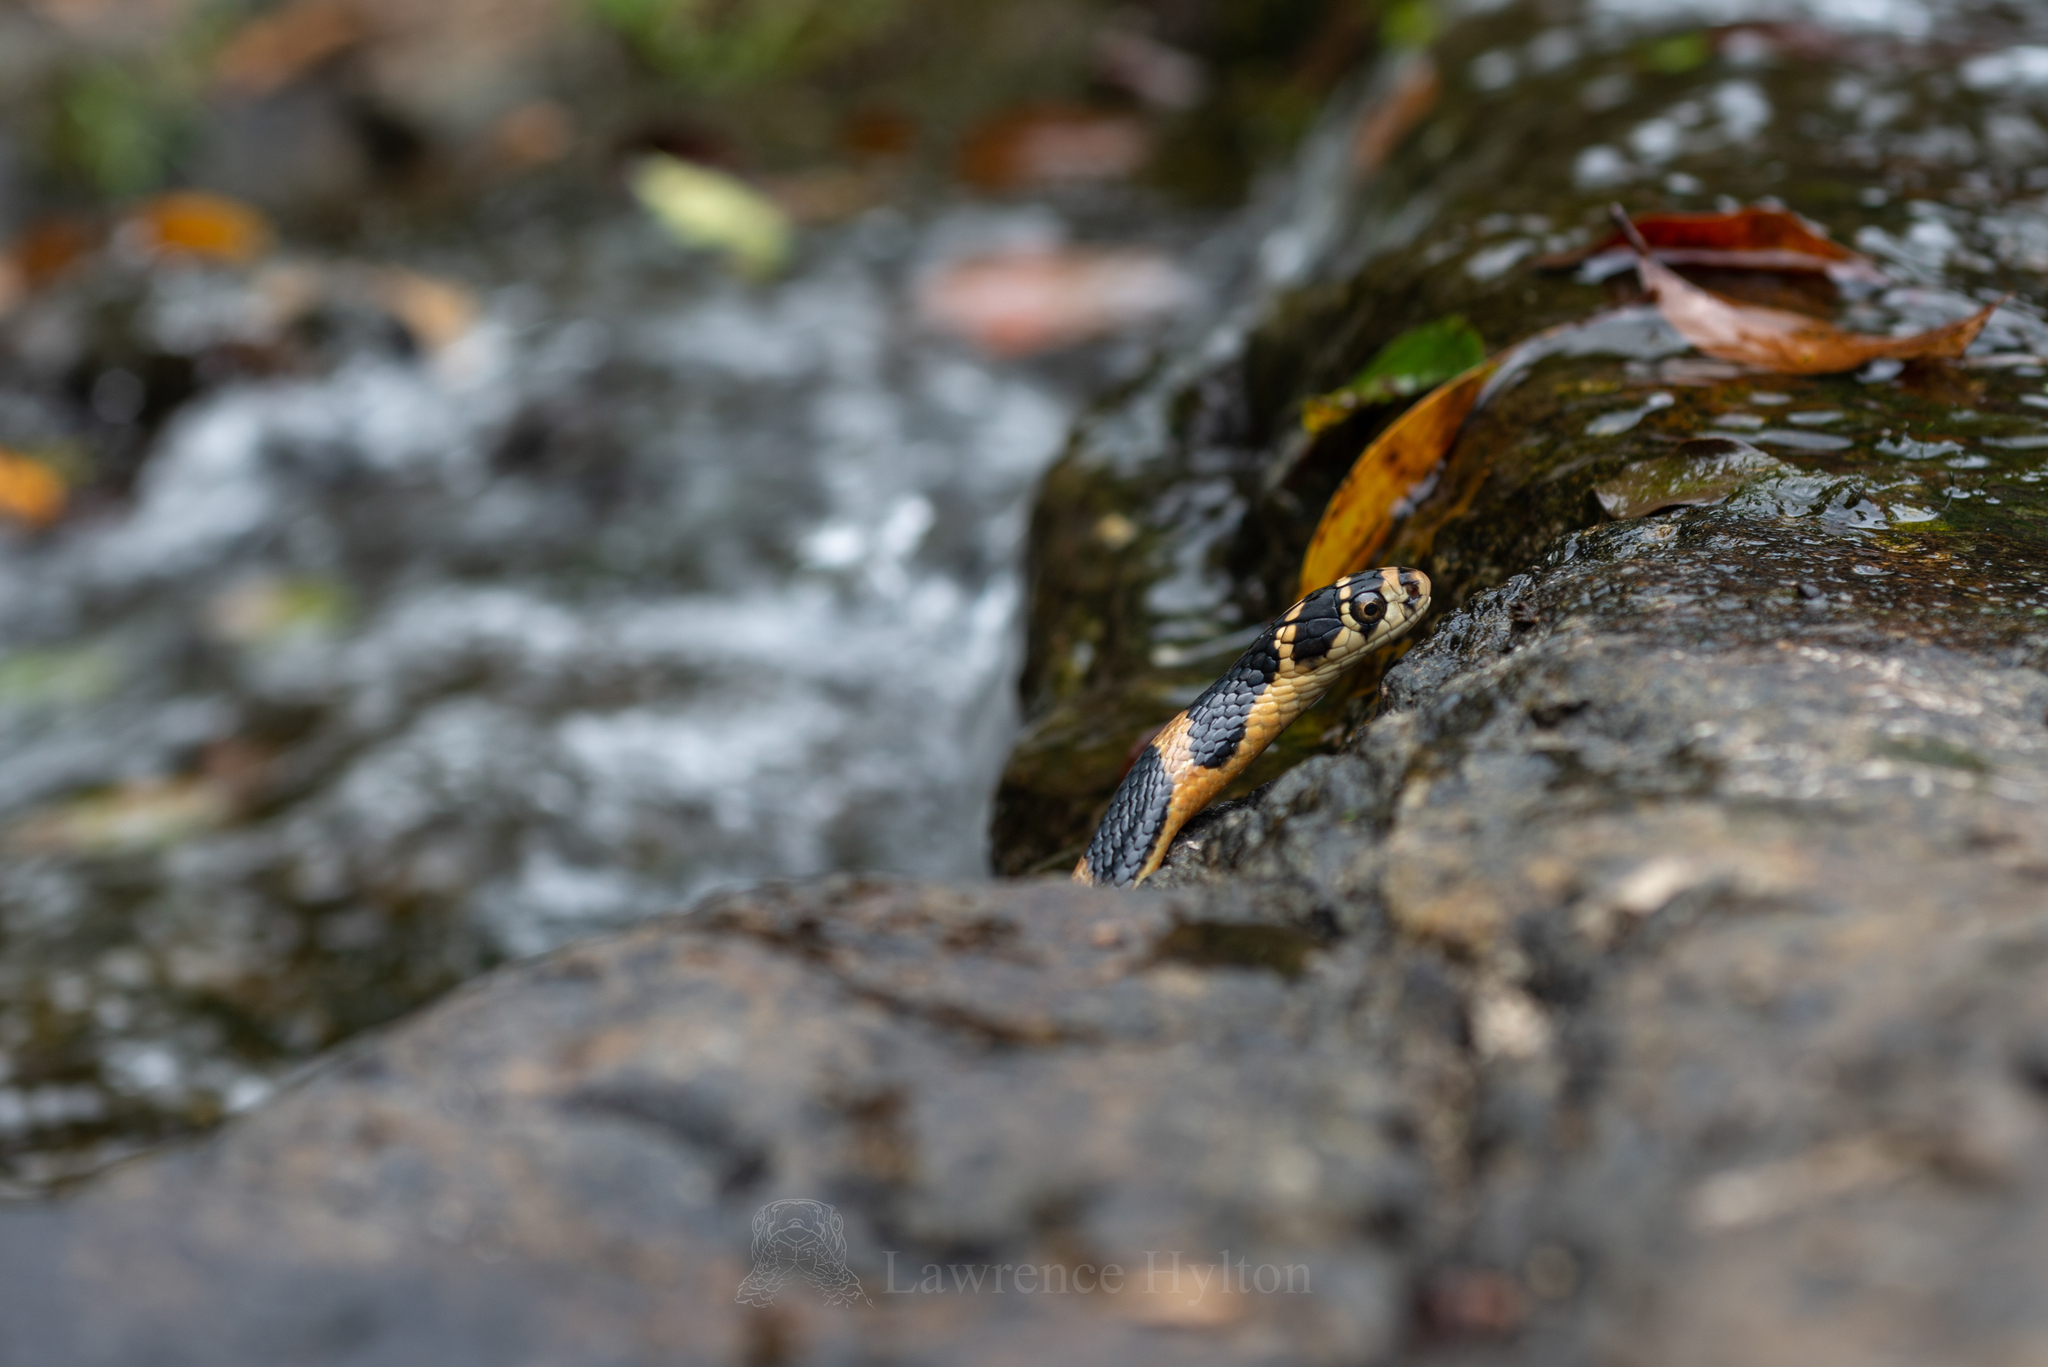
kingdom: Animalia
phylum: Chordata
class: Squamata
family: Elapidae
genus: Ophiophagus
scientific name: Ophiophagus hannah
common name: Hamadryad
